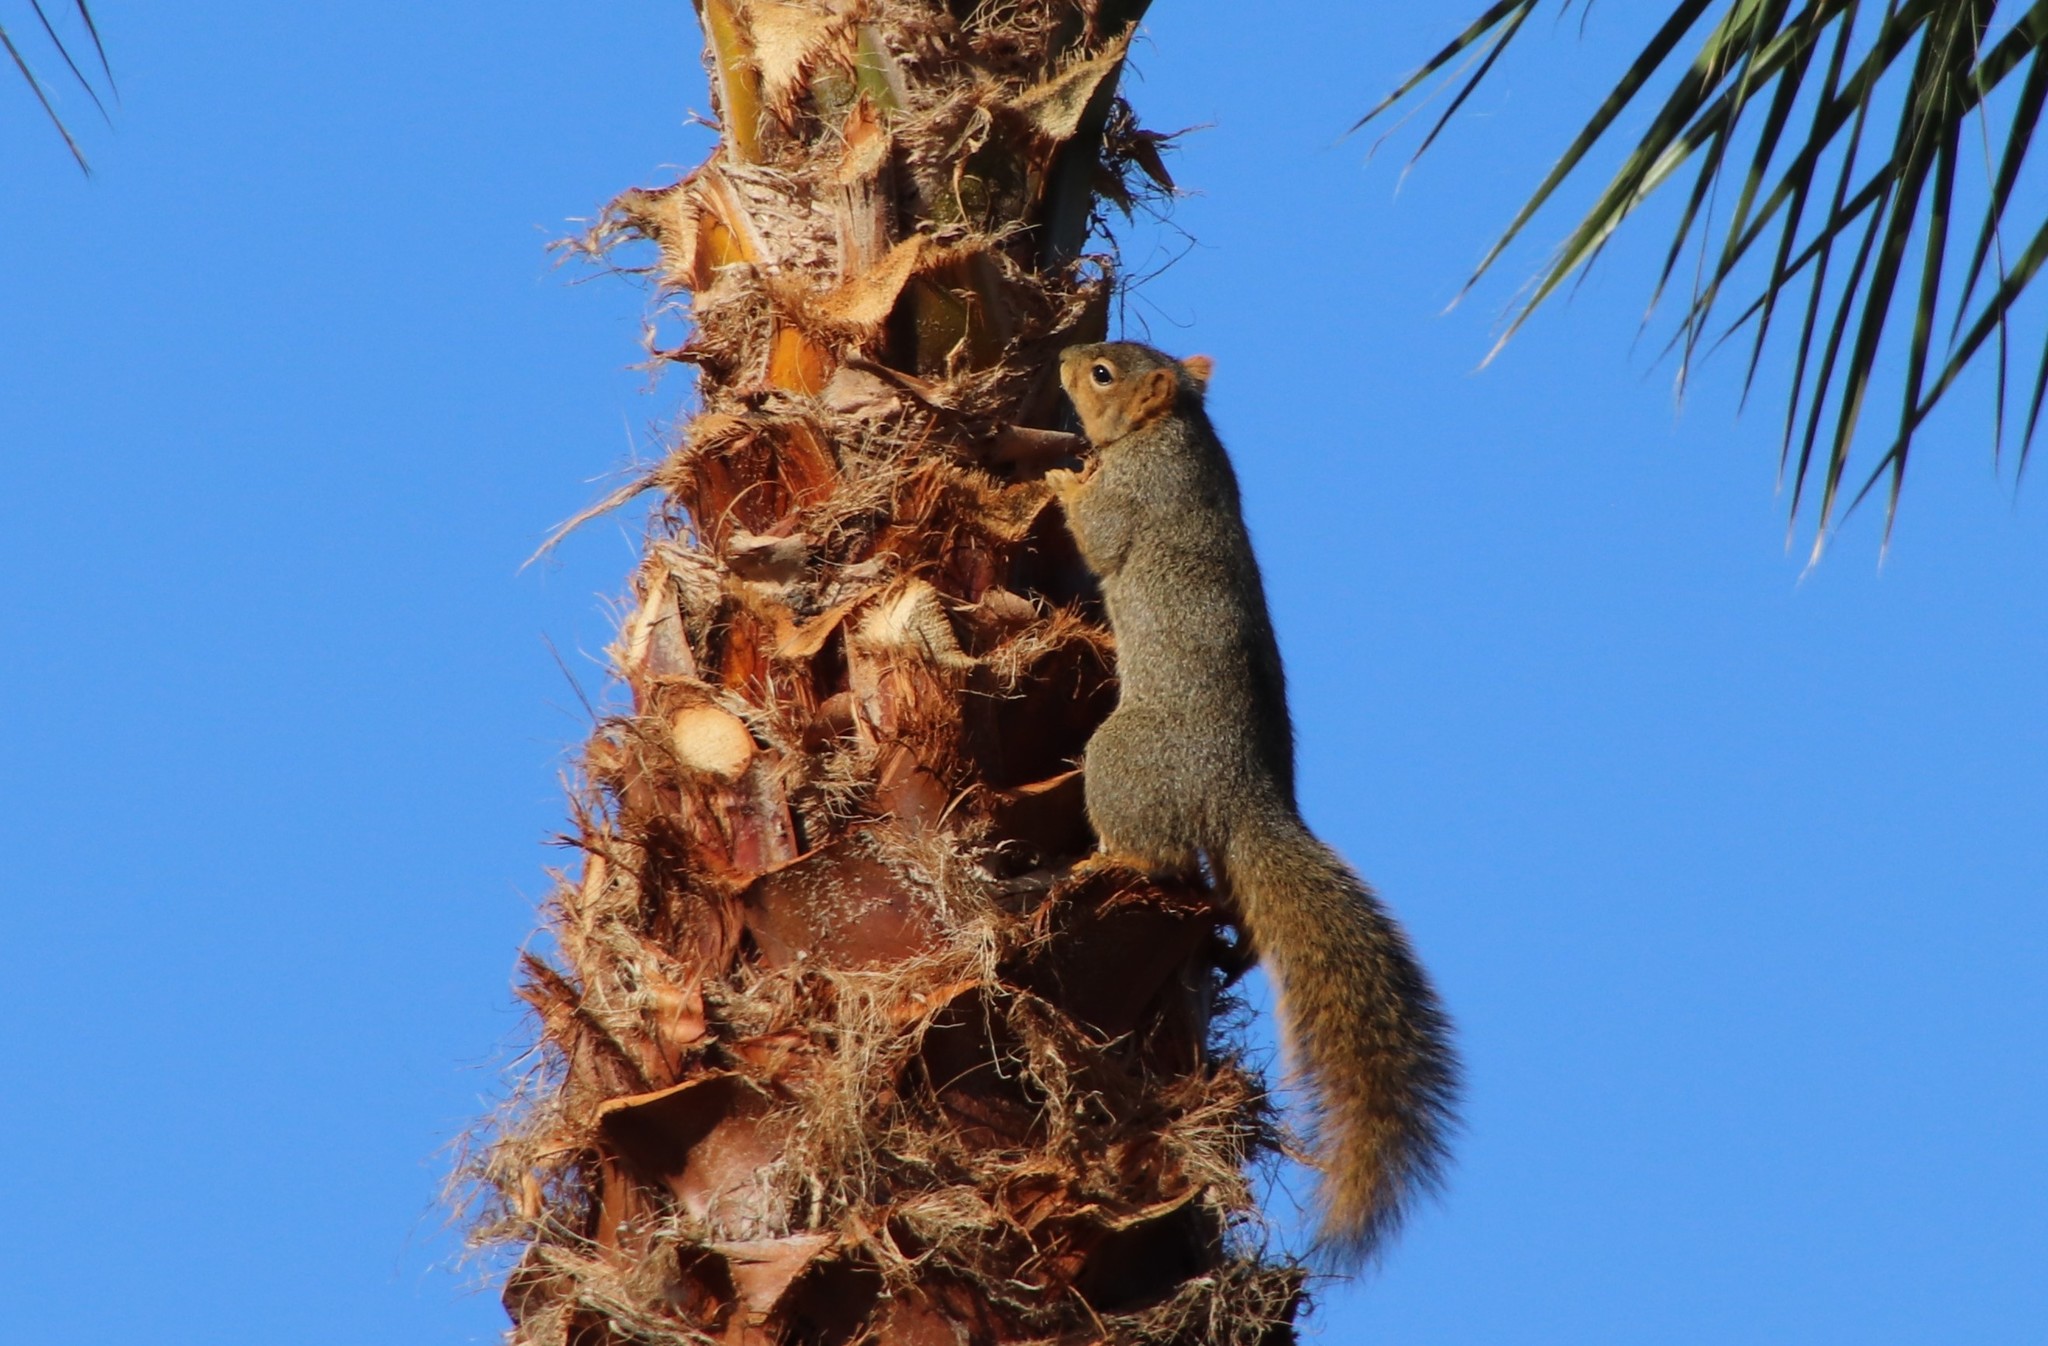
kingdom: Animalia
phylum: Chordata
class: Mammalia
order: Rodentia
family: Sciuridae
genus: Sciurus
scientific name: Sciurus niger
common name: Fox squirrel
